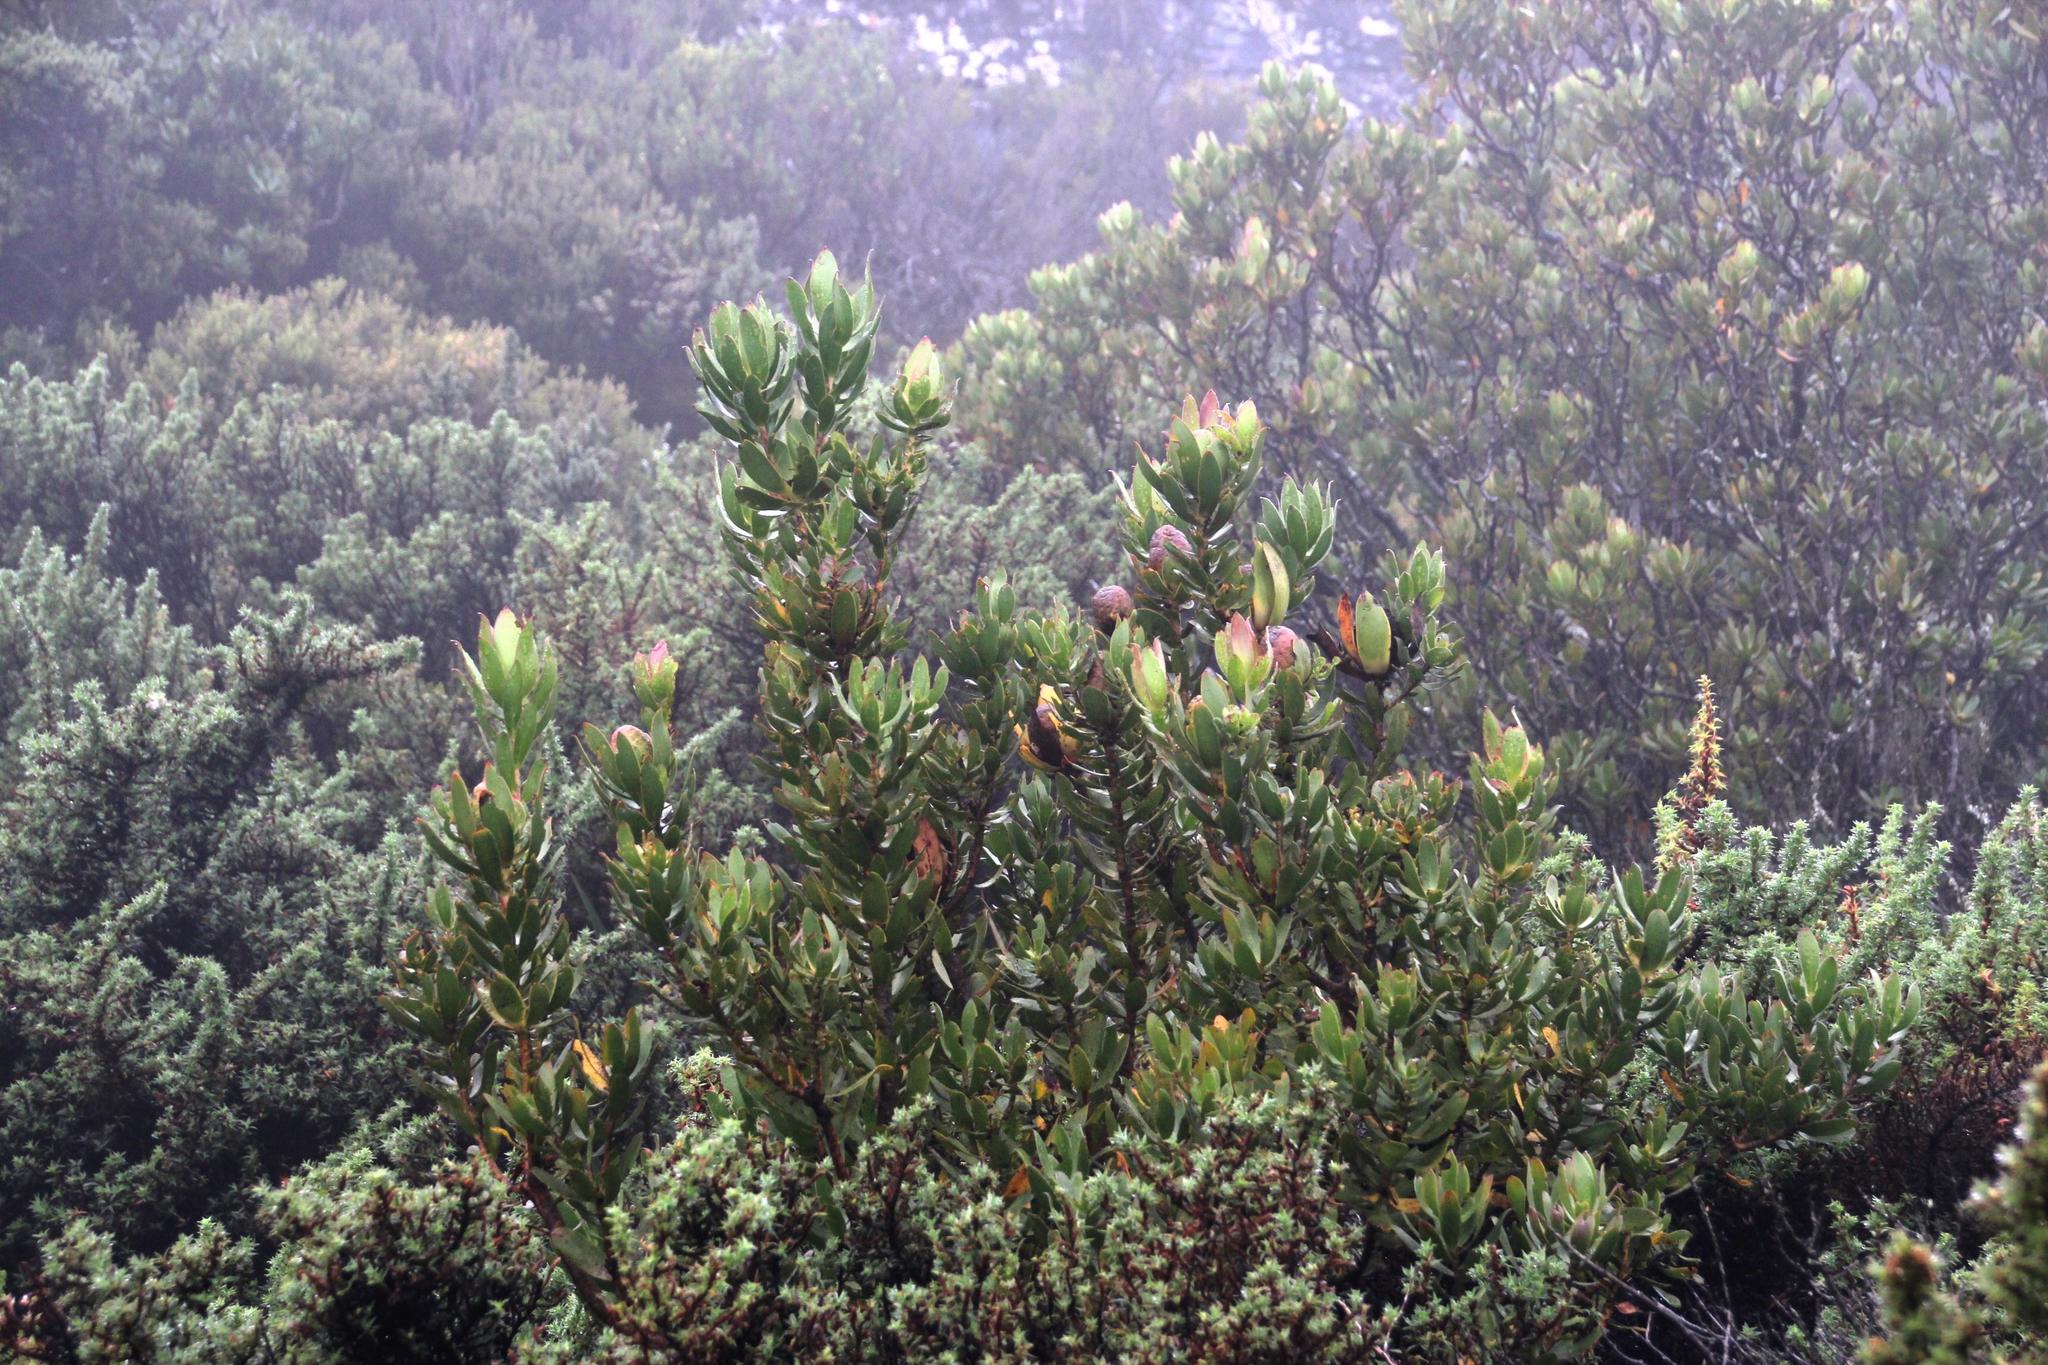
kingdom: Plantae
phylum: Tracheophyta
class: Magnoliopsida
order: Proteales
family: Proteaceae
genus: Leucadendron
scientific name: Leucadendron strobilinum
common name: Mountain rose
